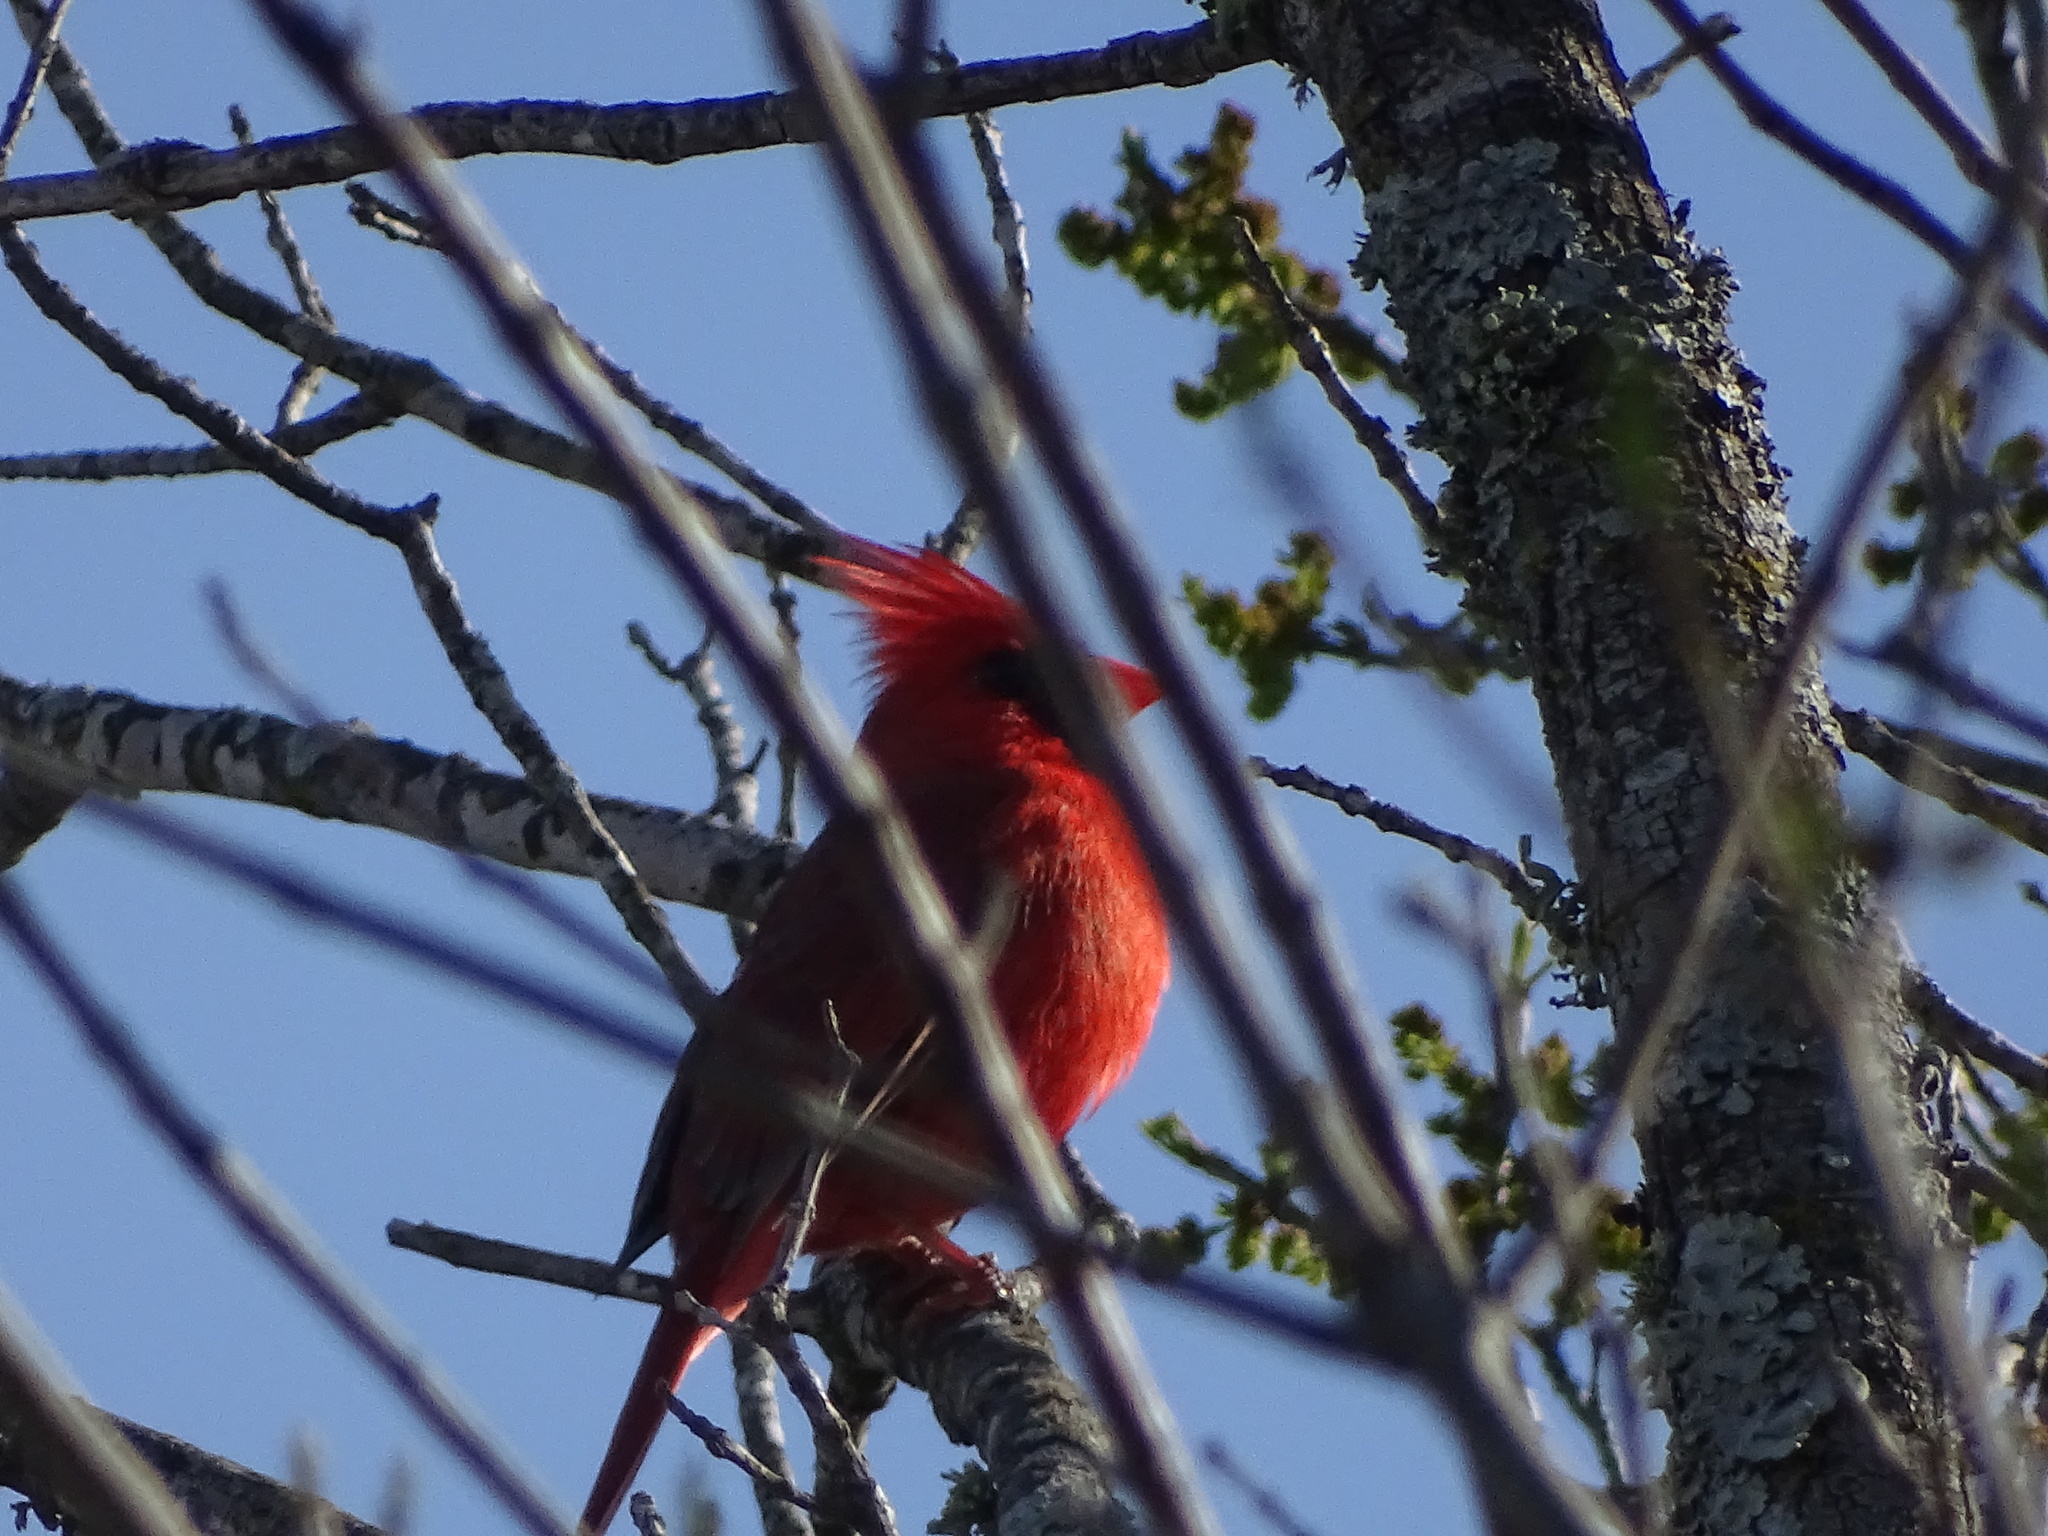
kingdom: Animalia
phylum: Chordata
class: Aves
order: Passeriformes
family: Cardinalidae
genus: Cardinalis
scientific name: Cardinalis cardinalis
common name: Northern cardinal
